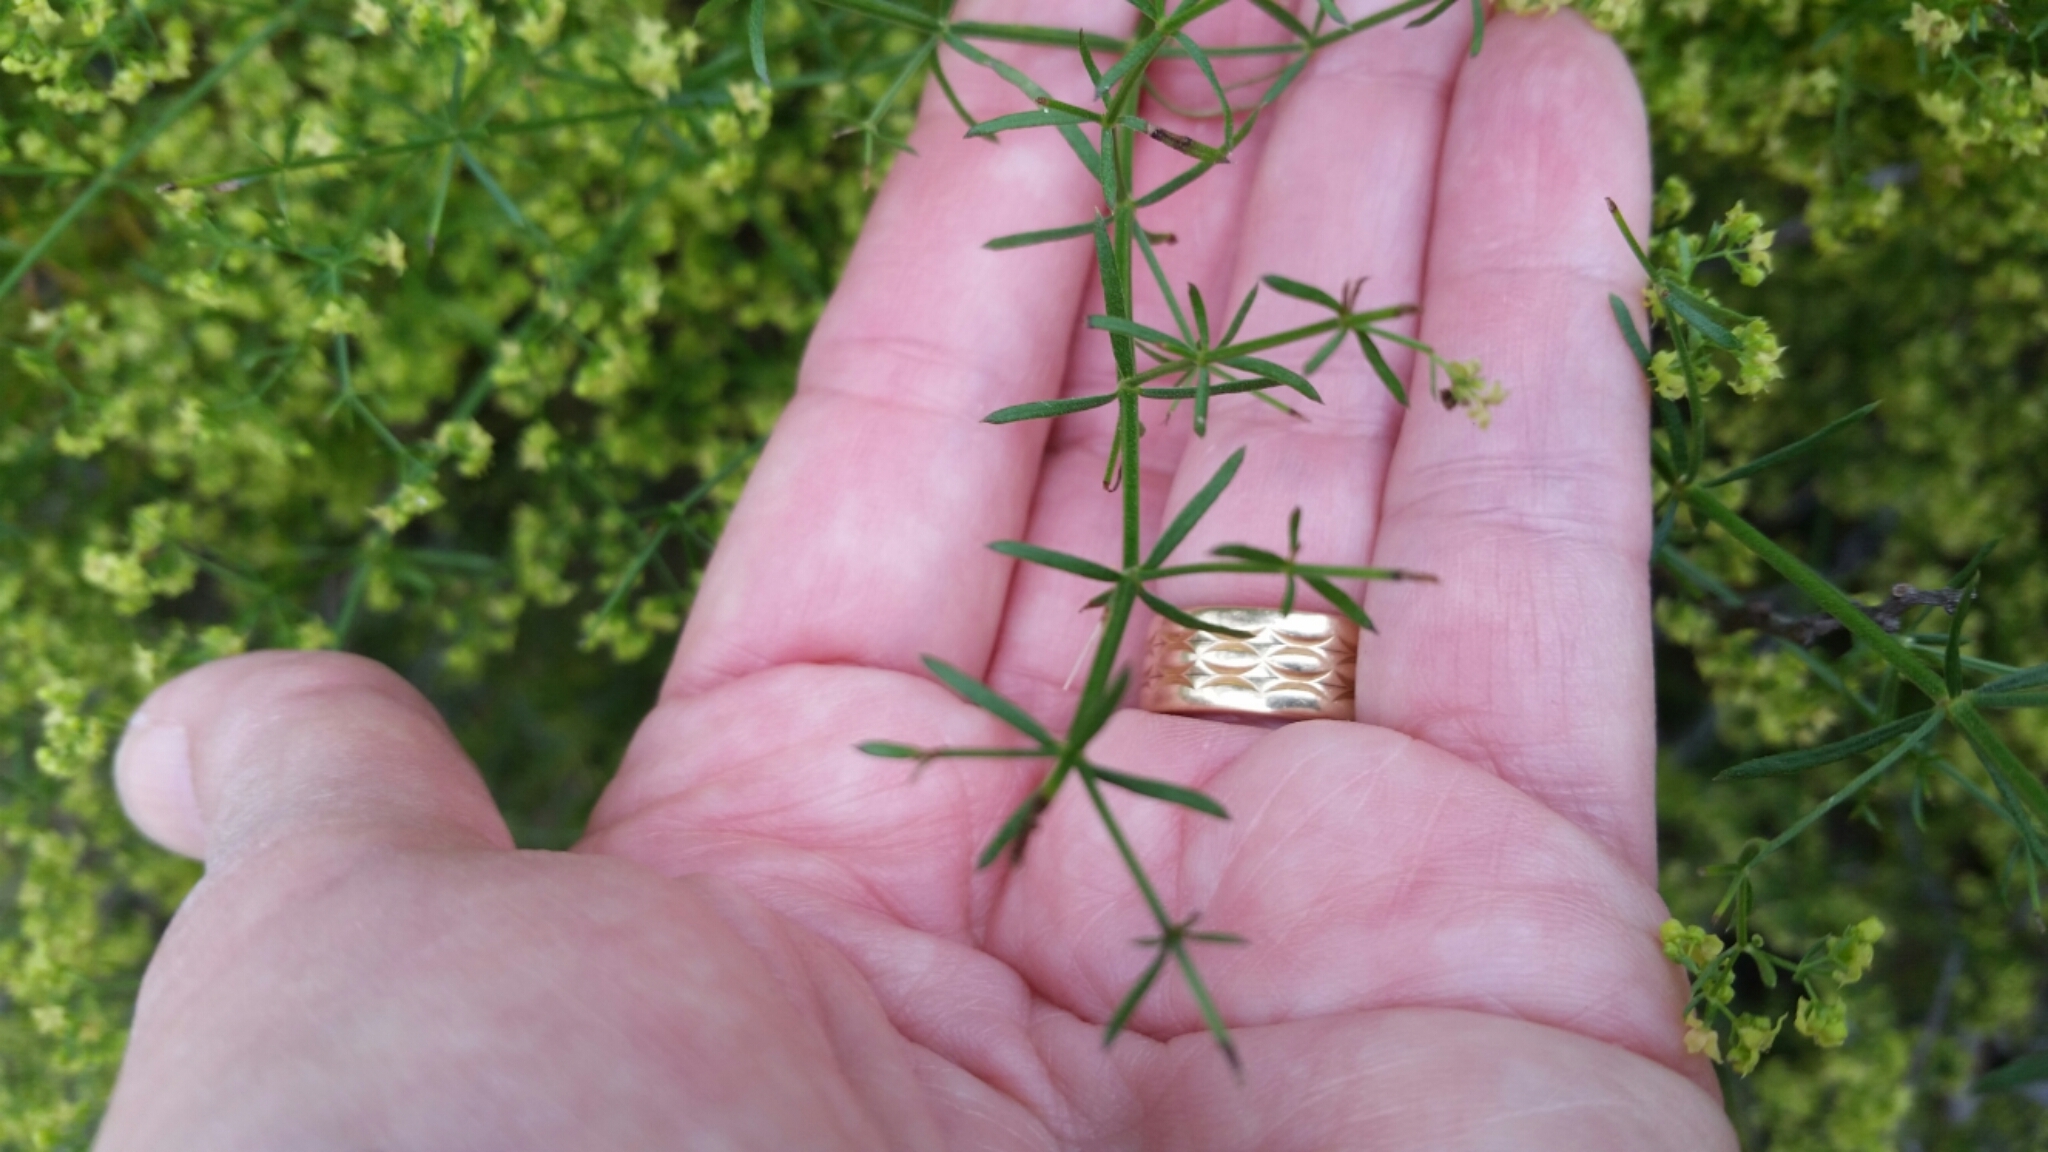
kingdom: Plantae
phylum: Tracheophyta
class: Magnoliopsida
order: Gentianales
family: Rubiaceae
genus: Galium
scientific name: Galium angustifolium
